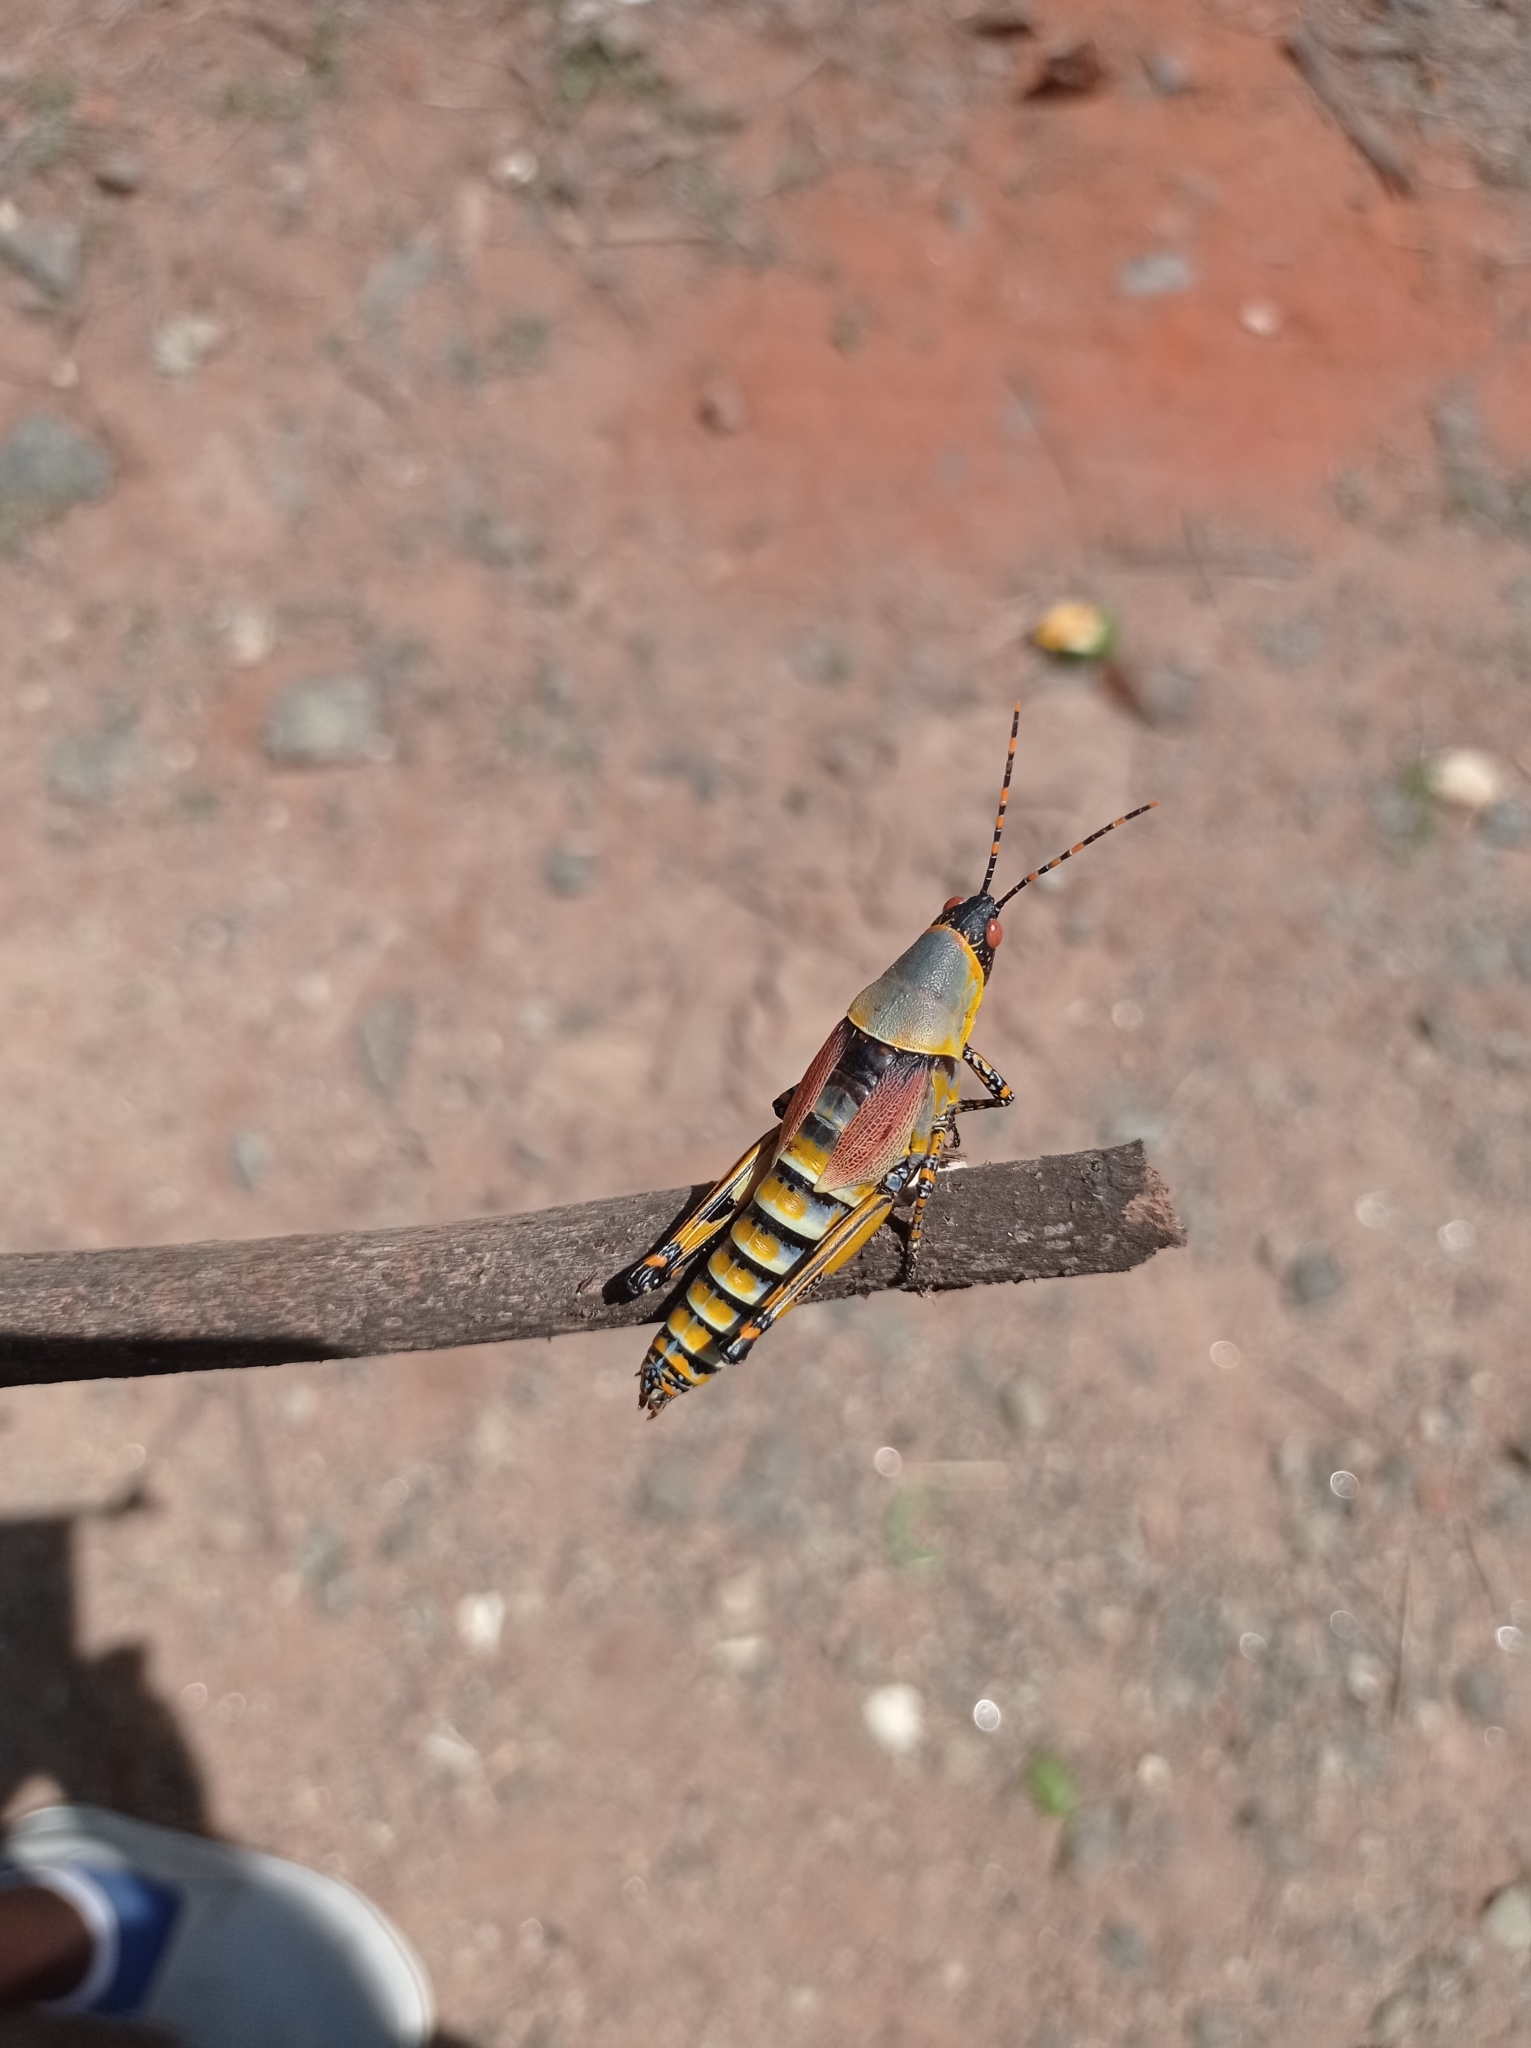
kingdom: Animalia
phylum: Arthropoda
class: Insecta
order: Orthoptera
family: Pyrgomorphidae
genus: Zonocerus
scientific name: Zonocerus elegans
